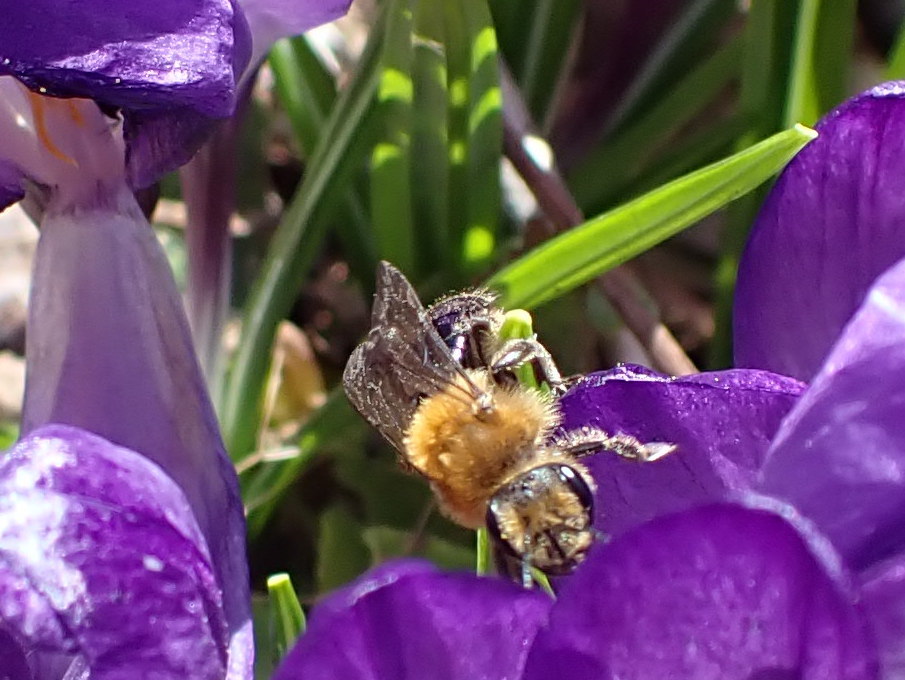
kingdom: Animalia
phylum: Arthropoda
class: Insecta
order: Hymenoptera
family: Andrenidae
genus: Andrena
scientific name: Andrena dunningi
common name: Dunning's miner
